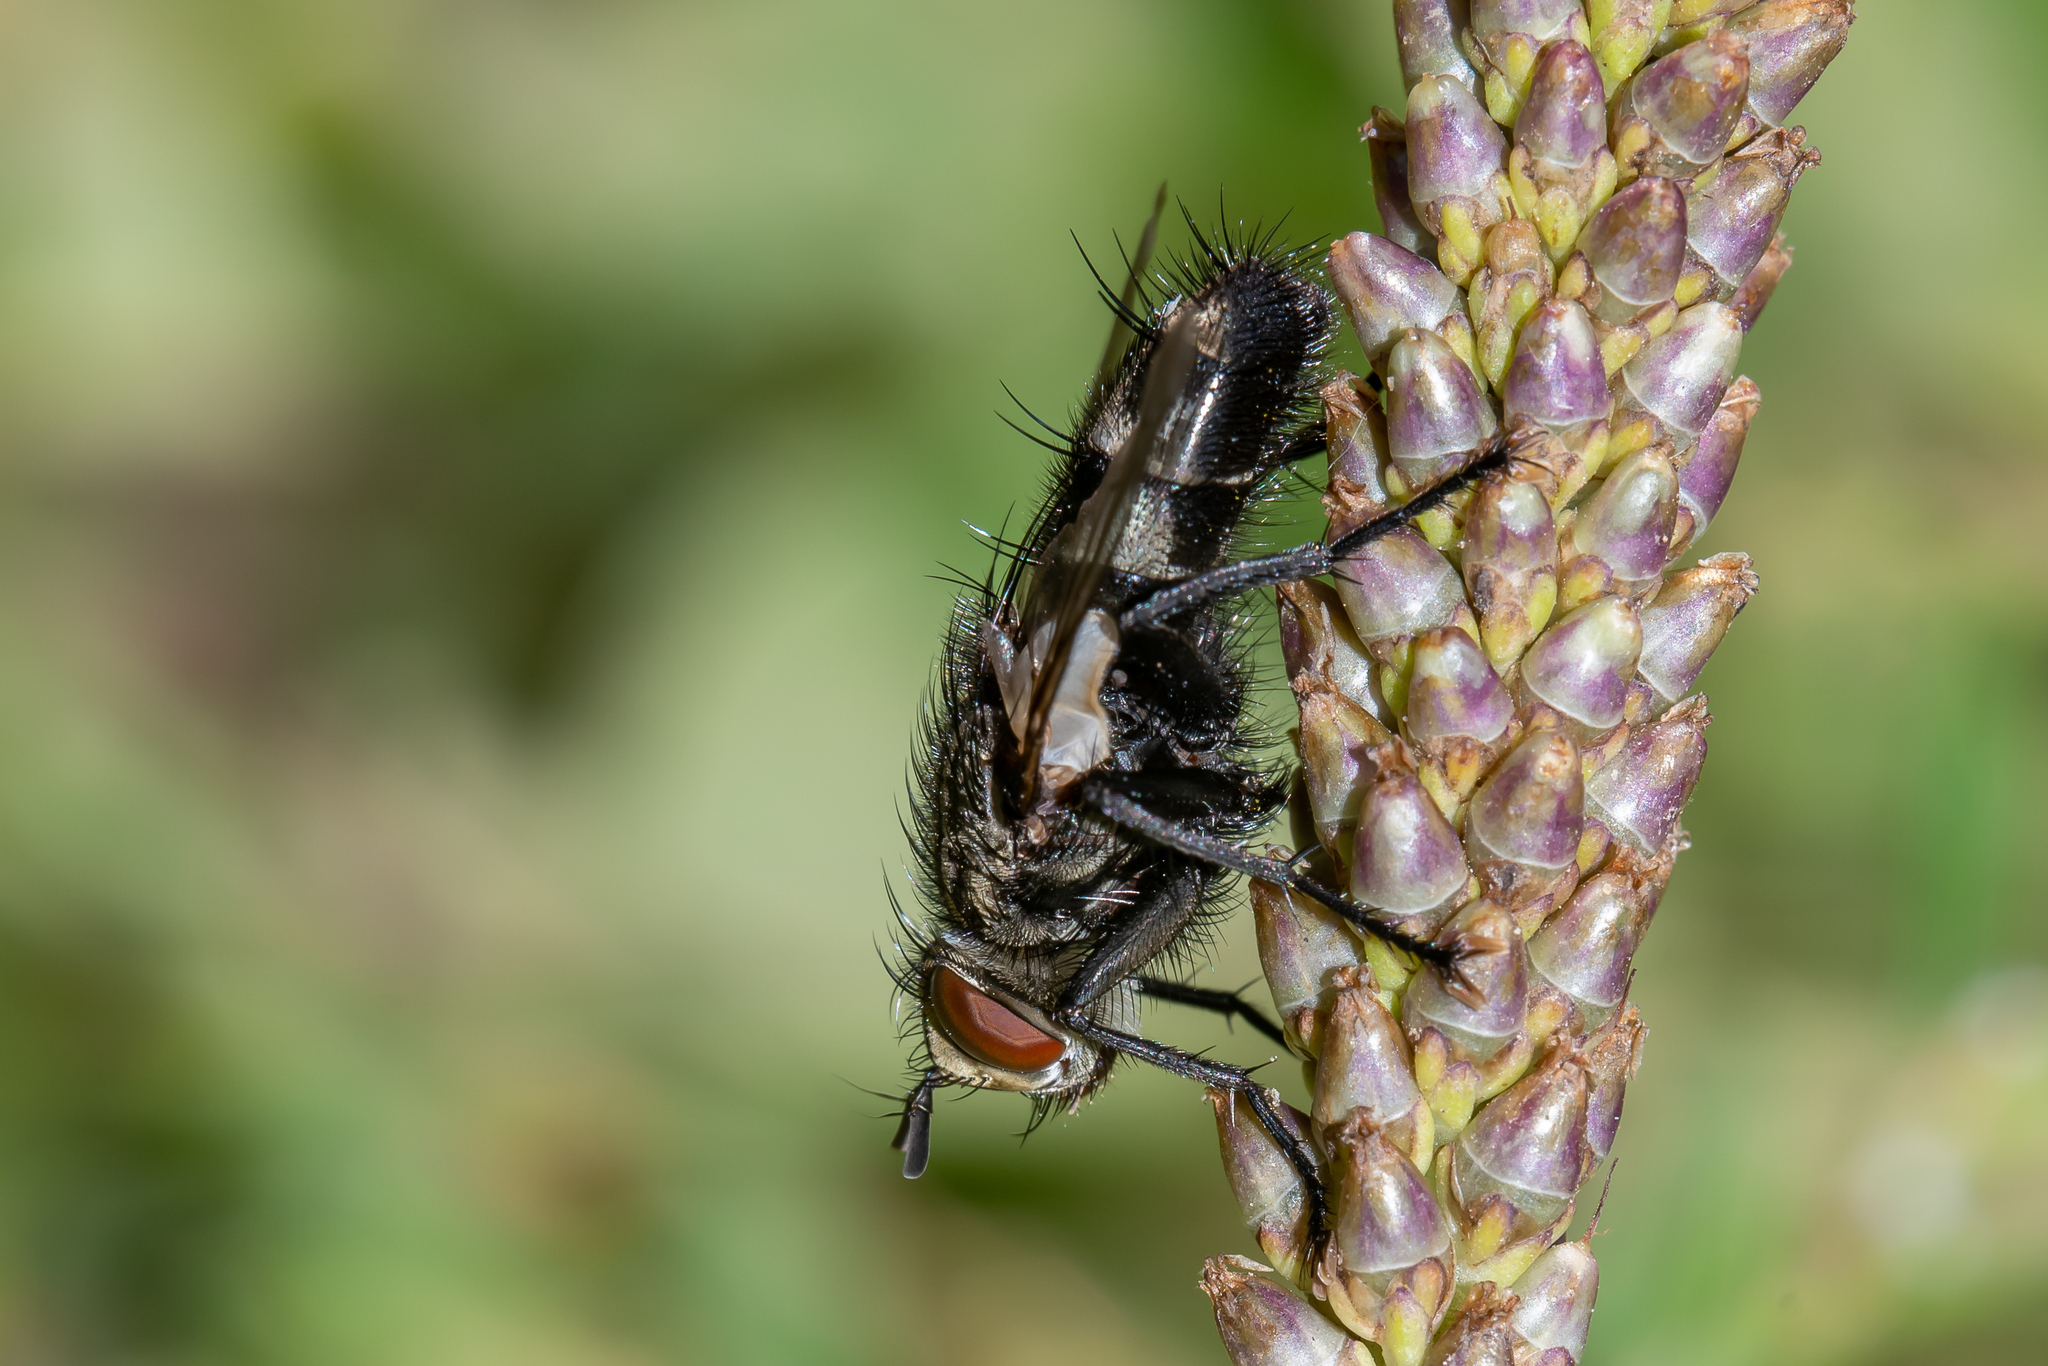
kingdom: Animalia
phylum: Arthropoda
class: Insecta
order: Diptera
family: Tachinidae
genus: Exorista
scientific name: Exorista rustica
